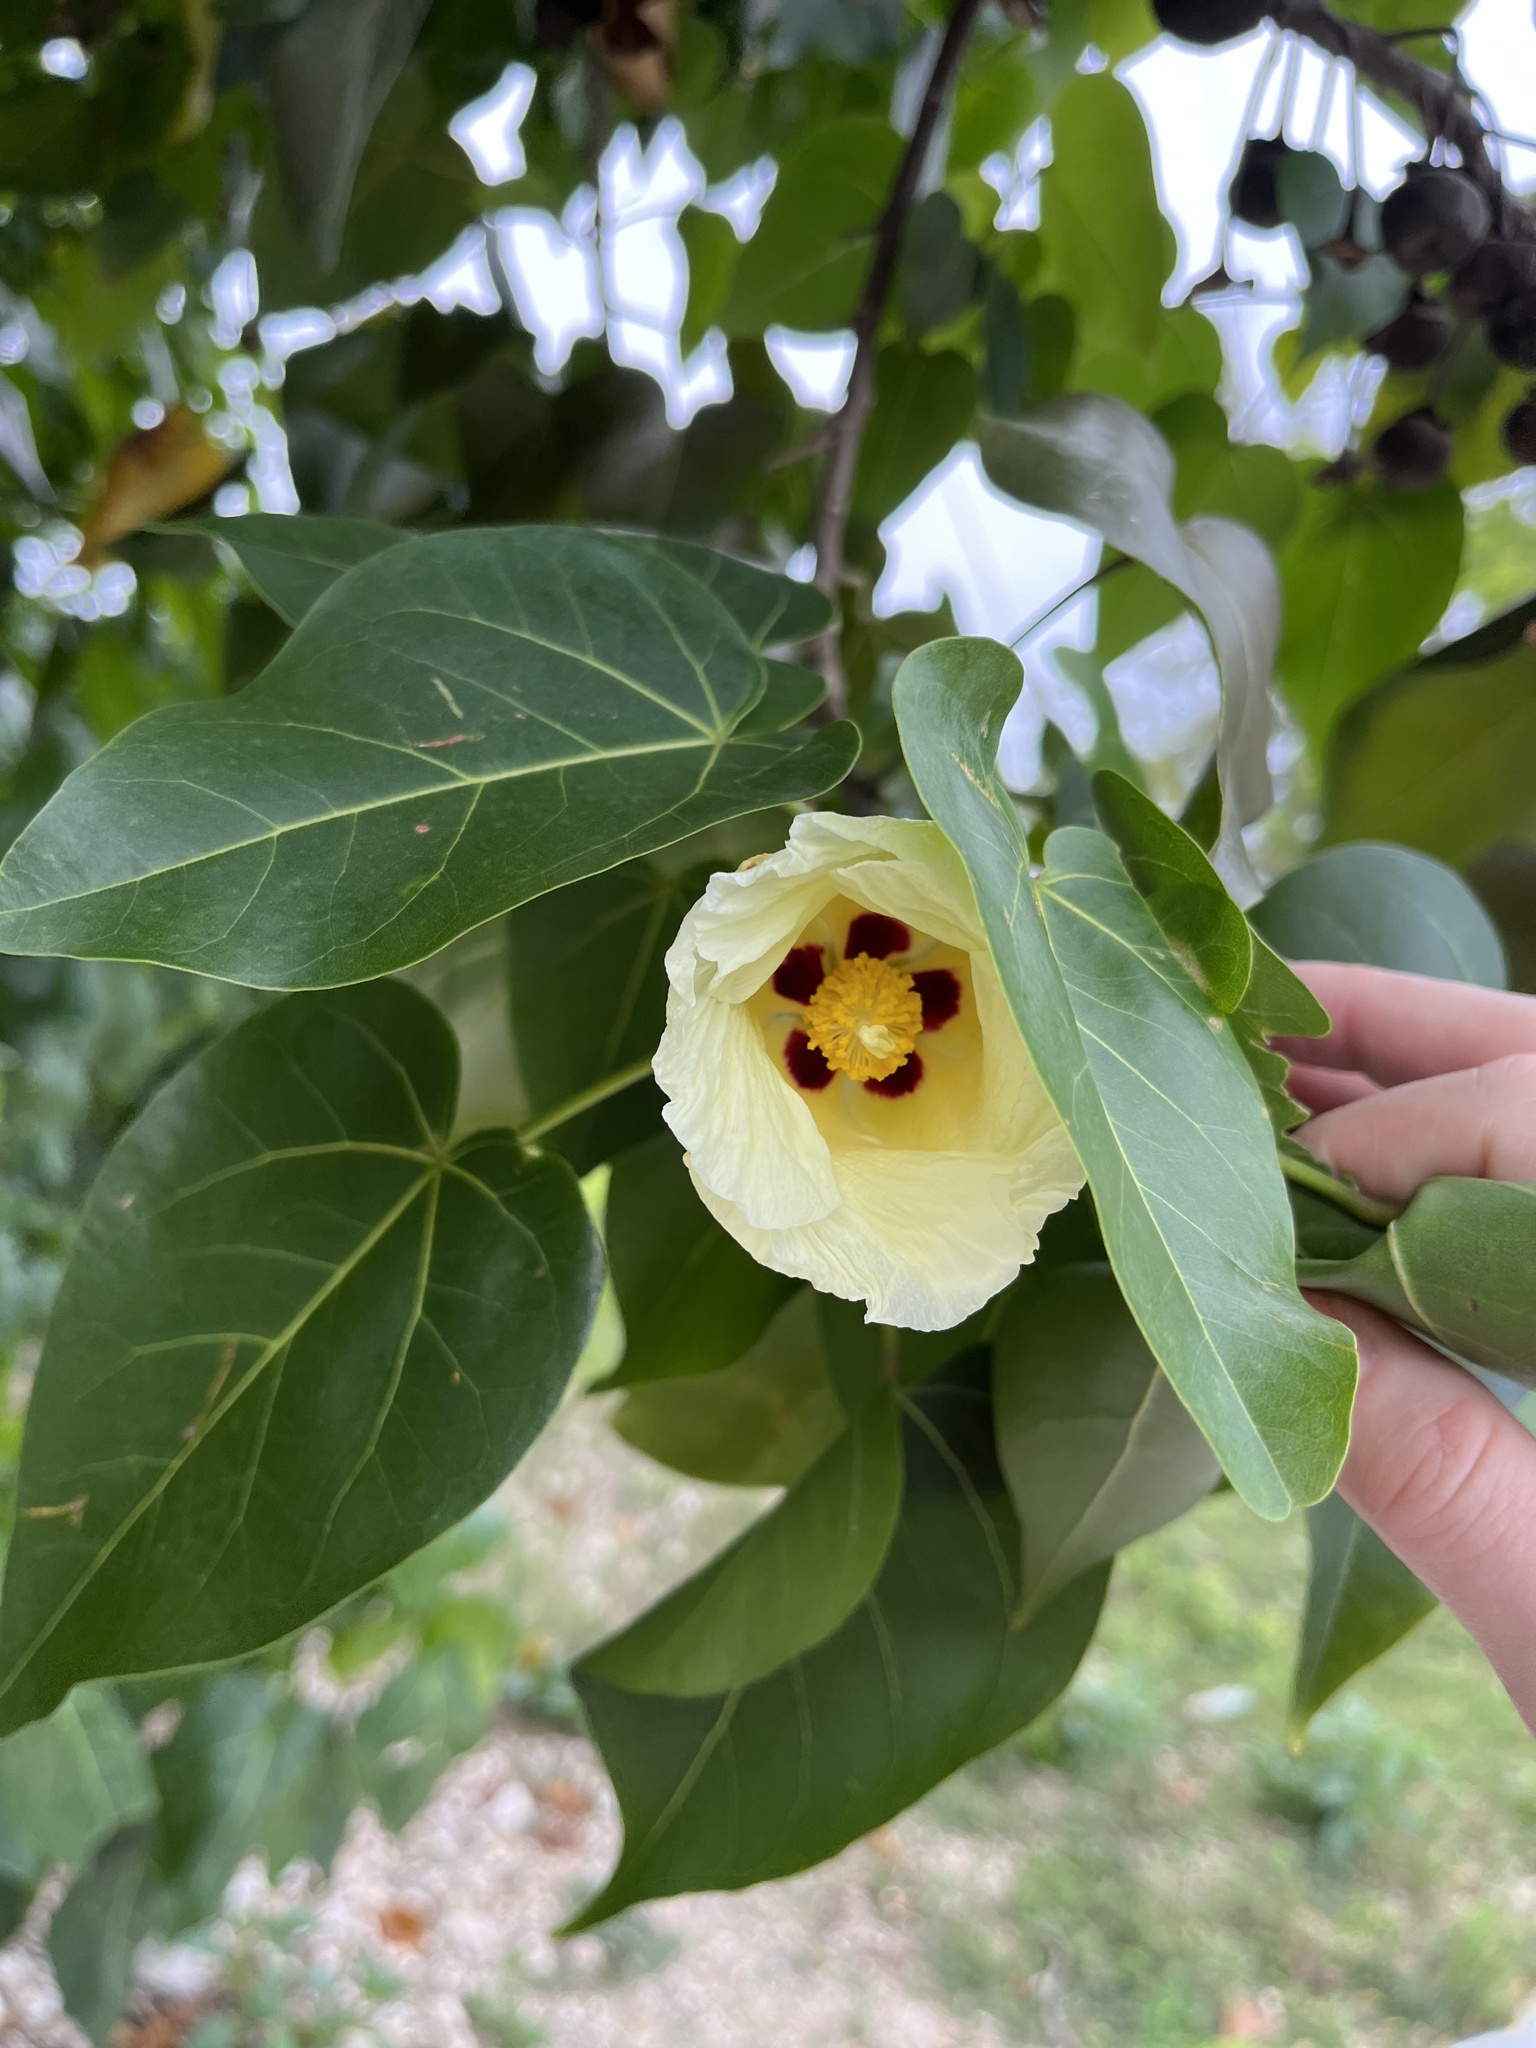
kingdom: Plantae
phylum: Tracheophyta
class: Magnoliopsida
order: Malvales
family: Malvaceae
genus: Thespesia
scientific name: Thespesia populnea
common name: Seaside mahoe
